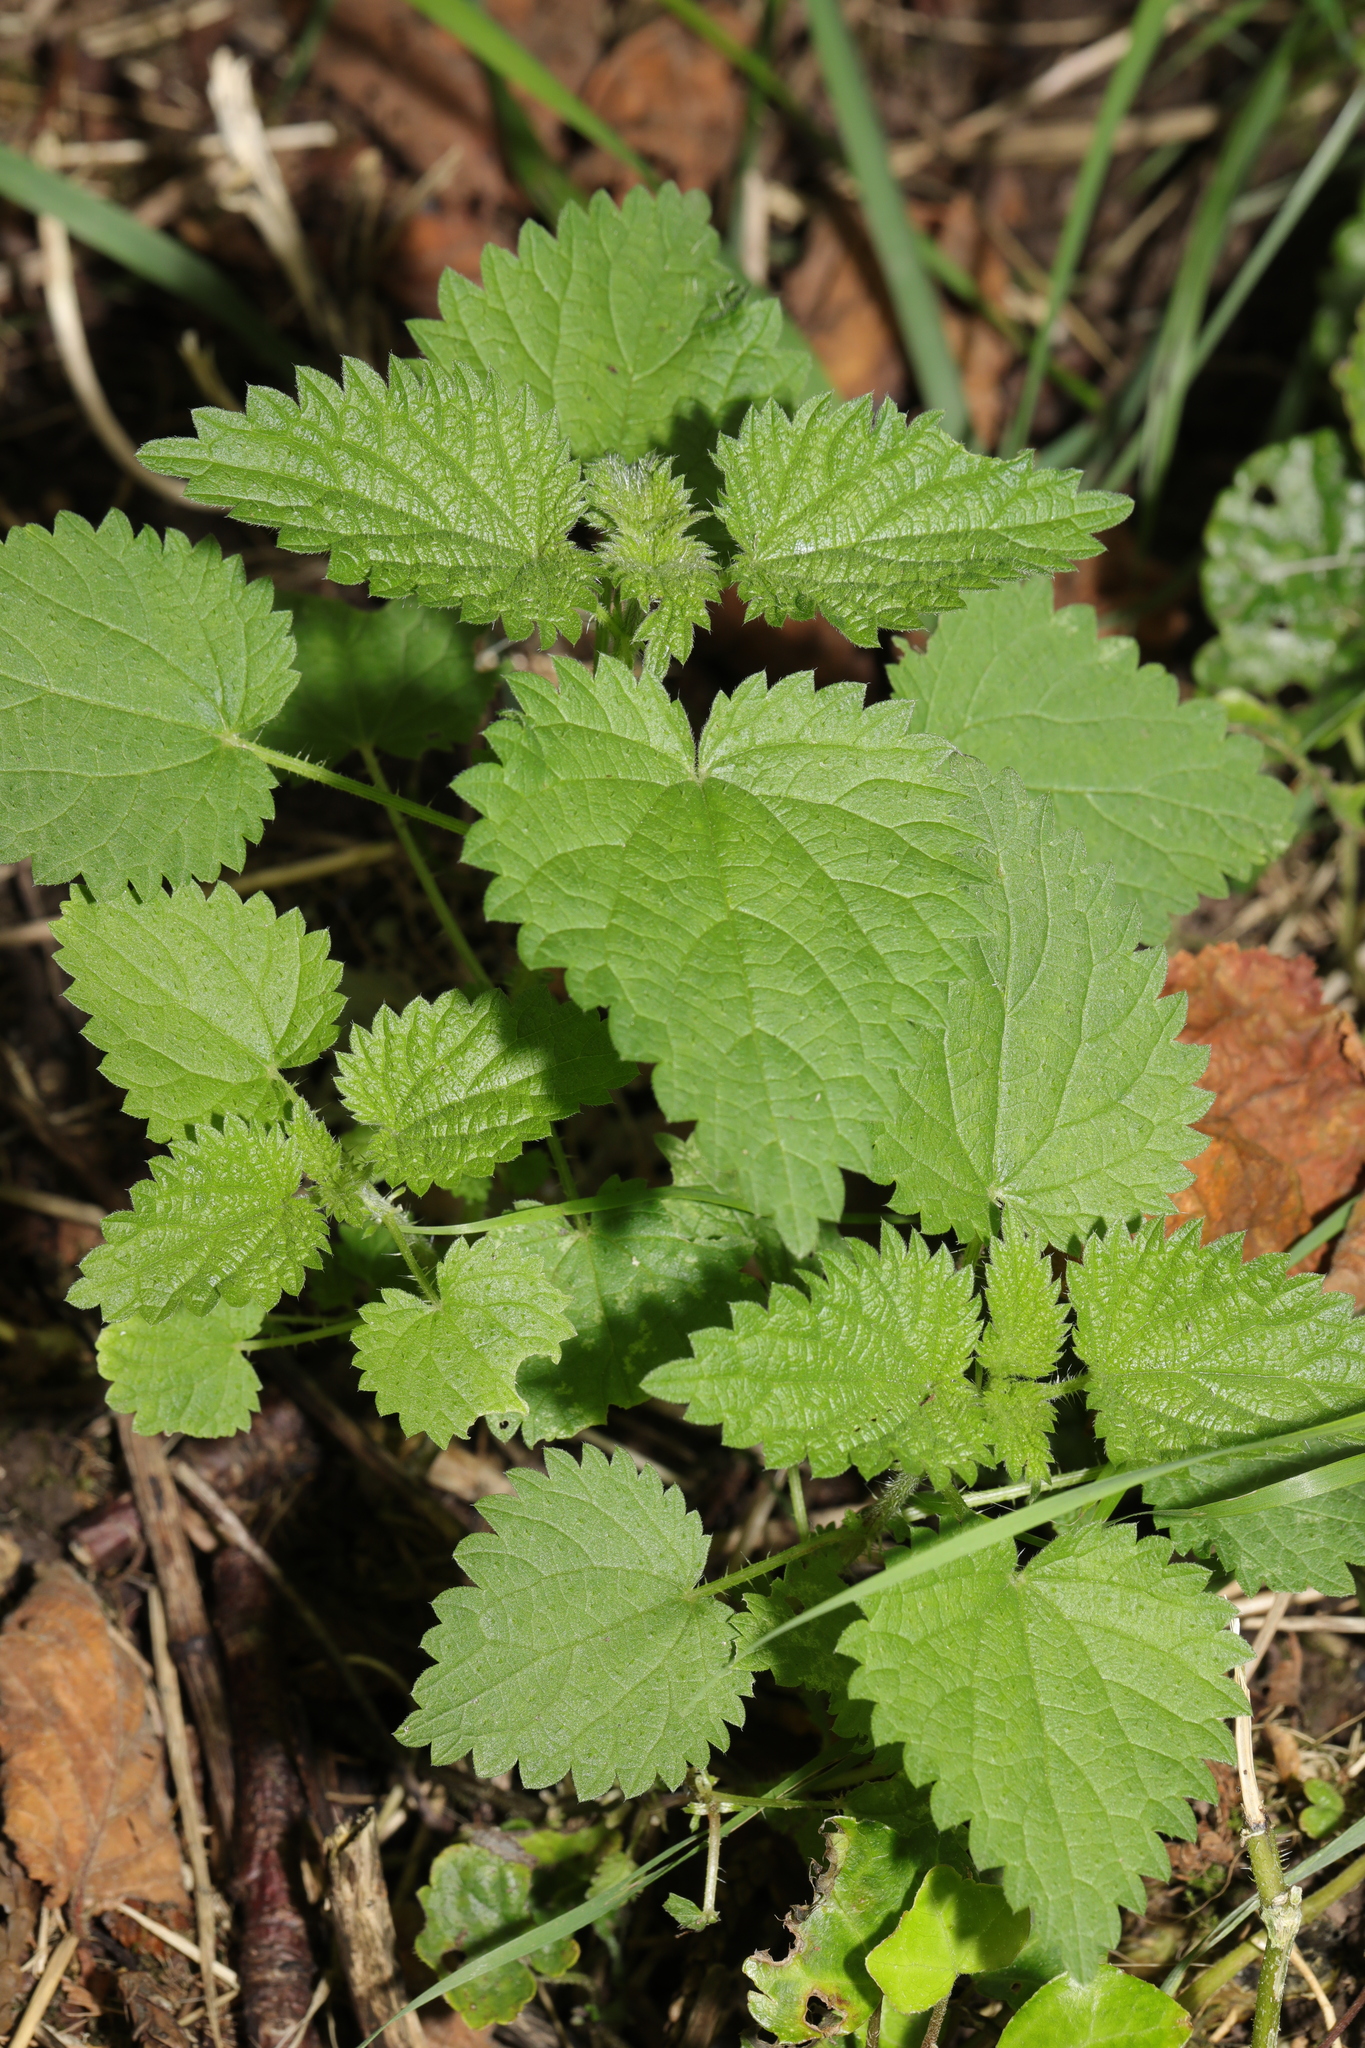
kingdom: Plantae
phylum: Tracheophyta
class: Magnoliopsida
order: Rosales
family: Urticaceae
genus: Urtica
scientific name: Urtica dioica
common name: Common nettle
